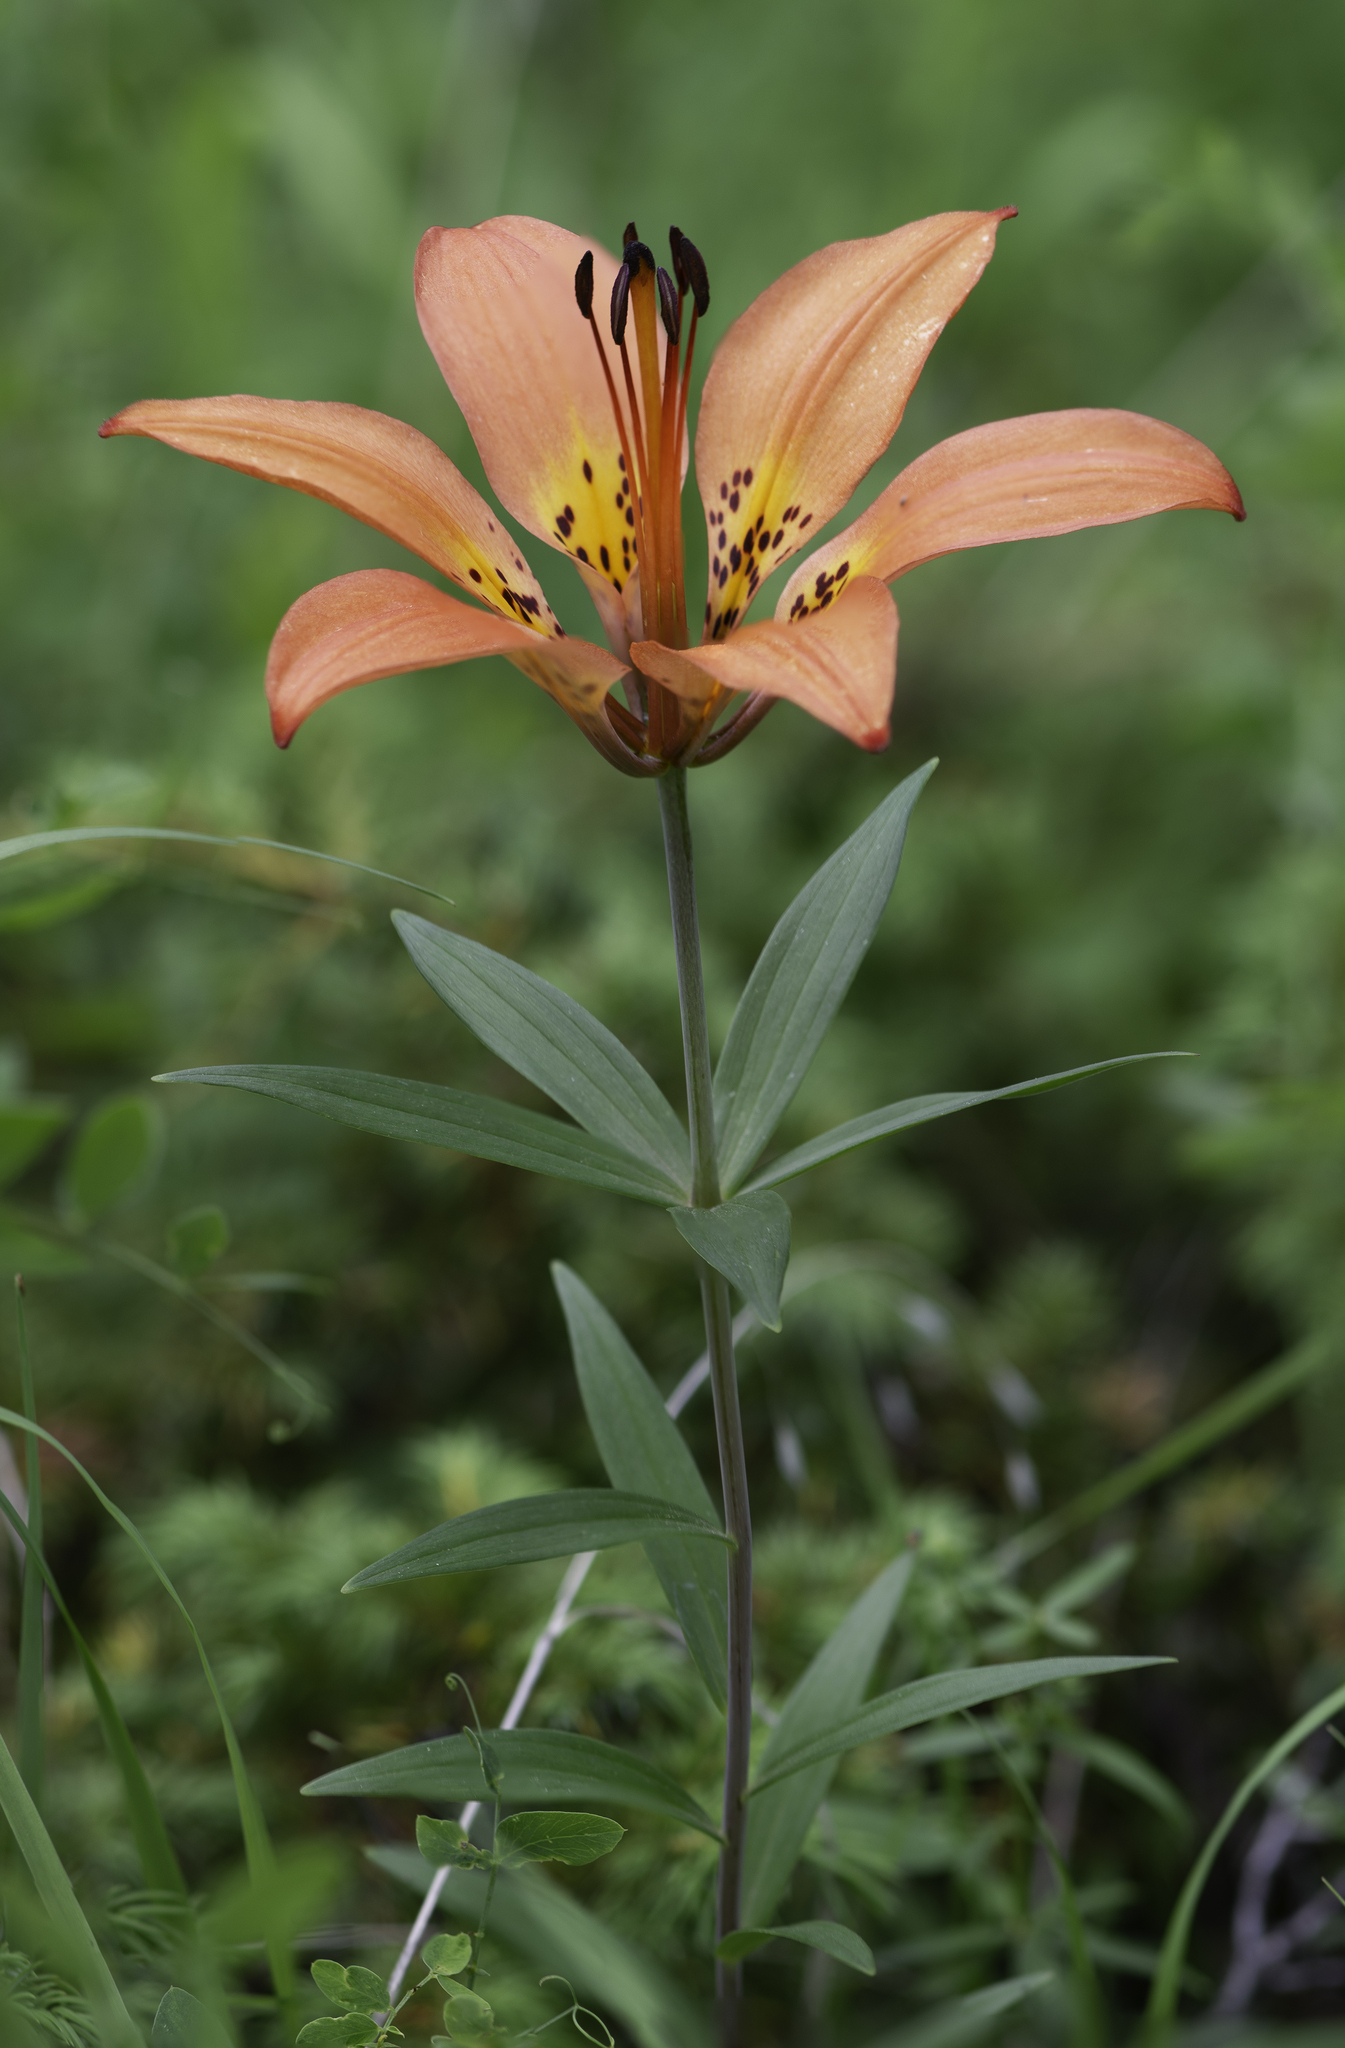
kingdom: Plantae
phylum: Tracheophyta
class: Liliopsida
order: Liliales
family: Liliaceae
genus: Lilium
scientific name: Lilium philadelphicum
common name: Red lily
